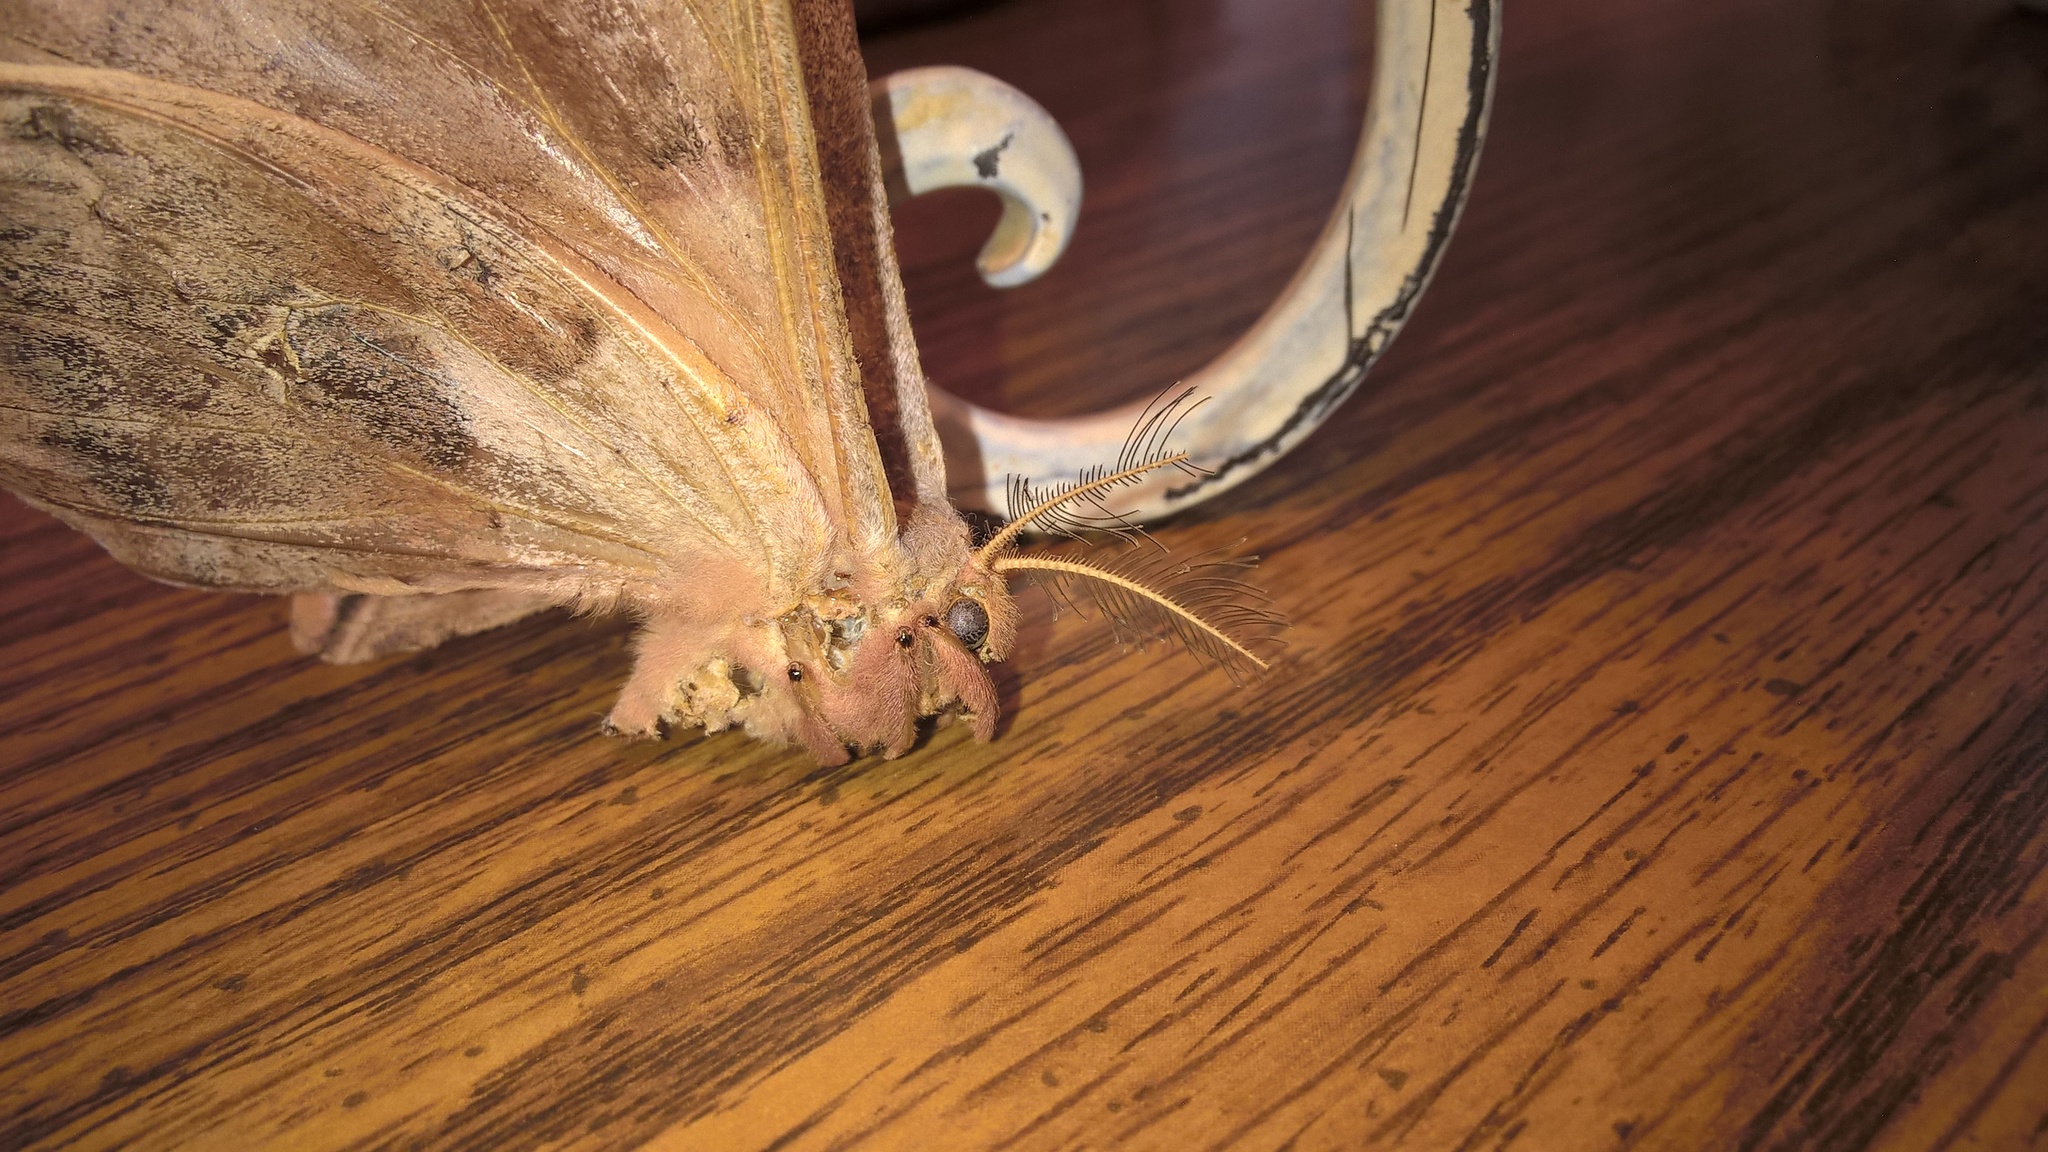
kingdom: Animalia
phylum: Arthropoda
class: Insecta
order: Lepidoptera
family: Saturniidae
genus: Antheraea
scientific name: Antheraea polyphemus
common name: Polyphemus moth
